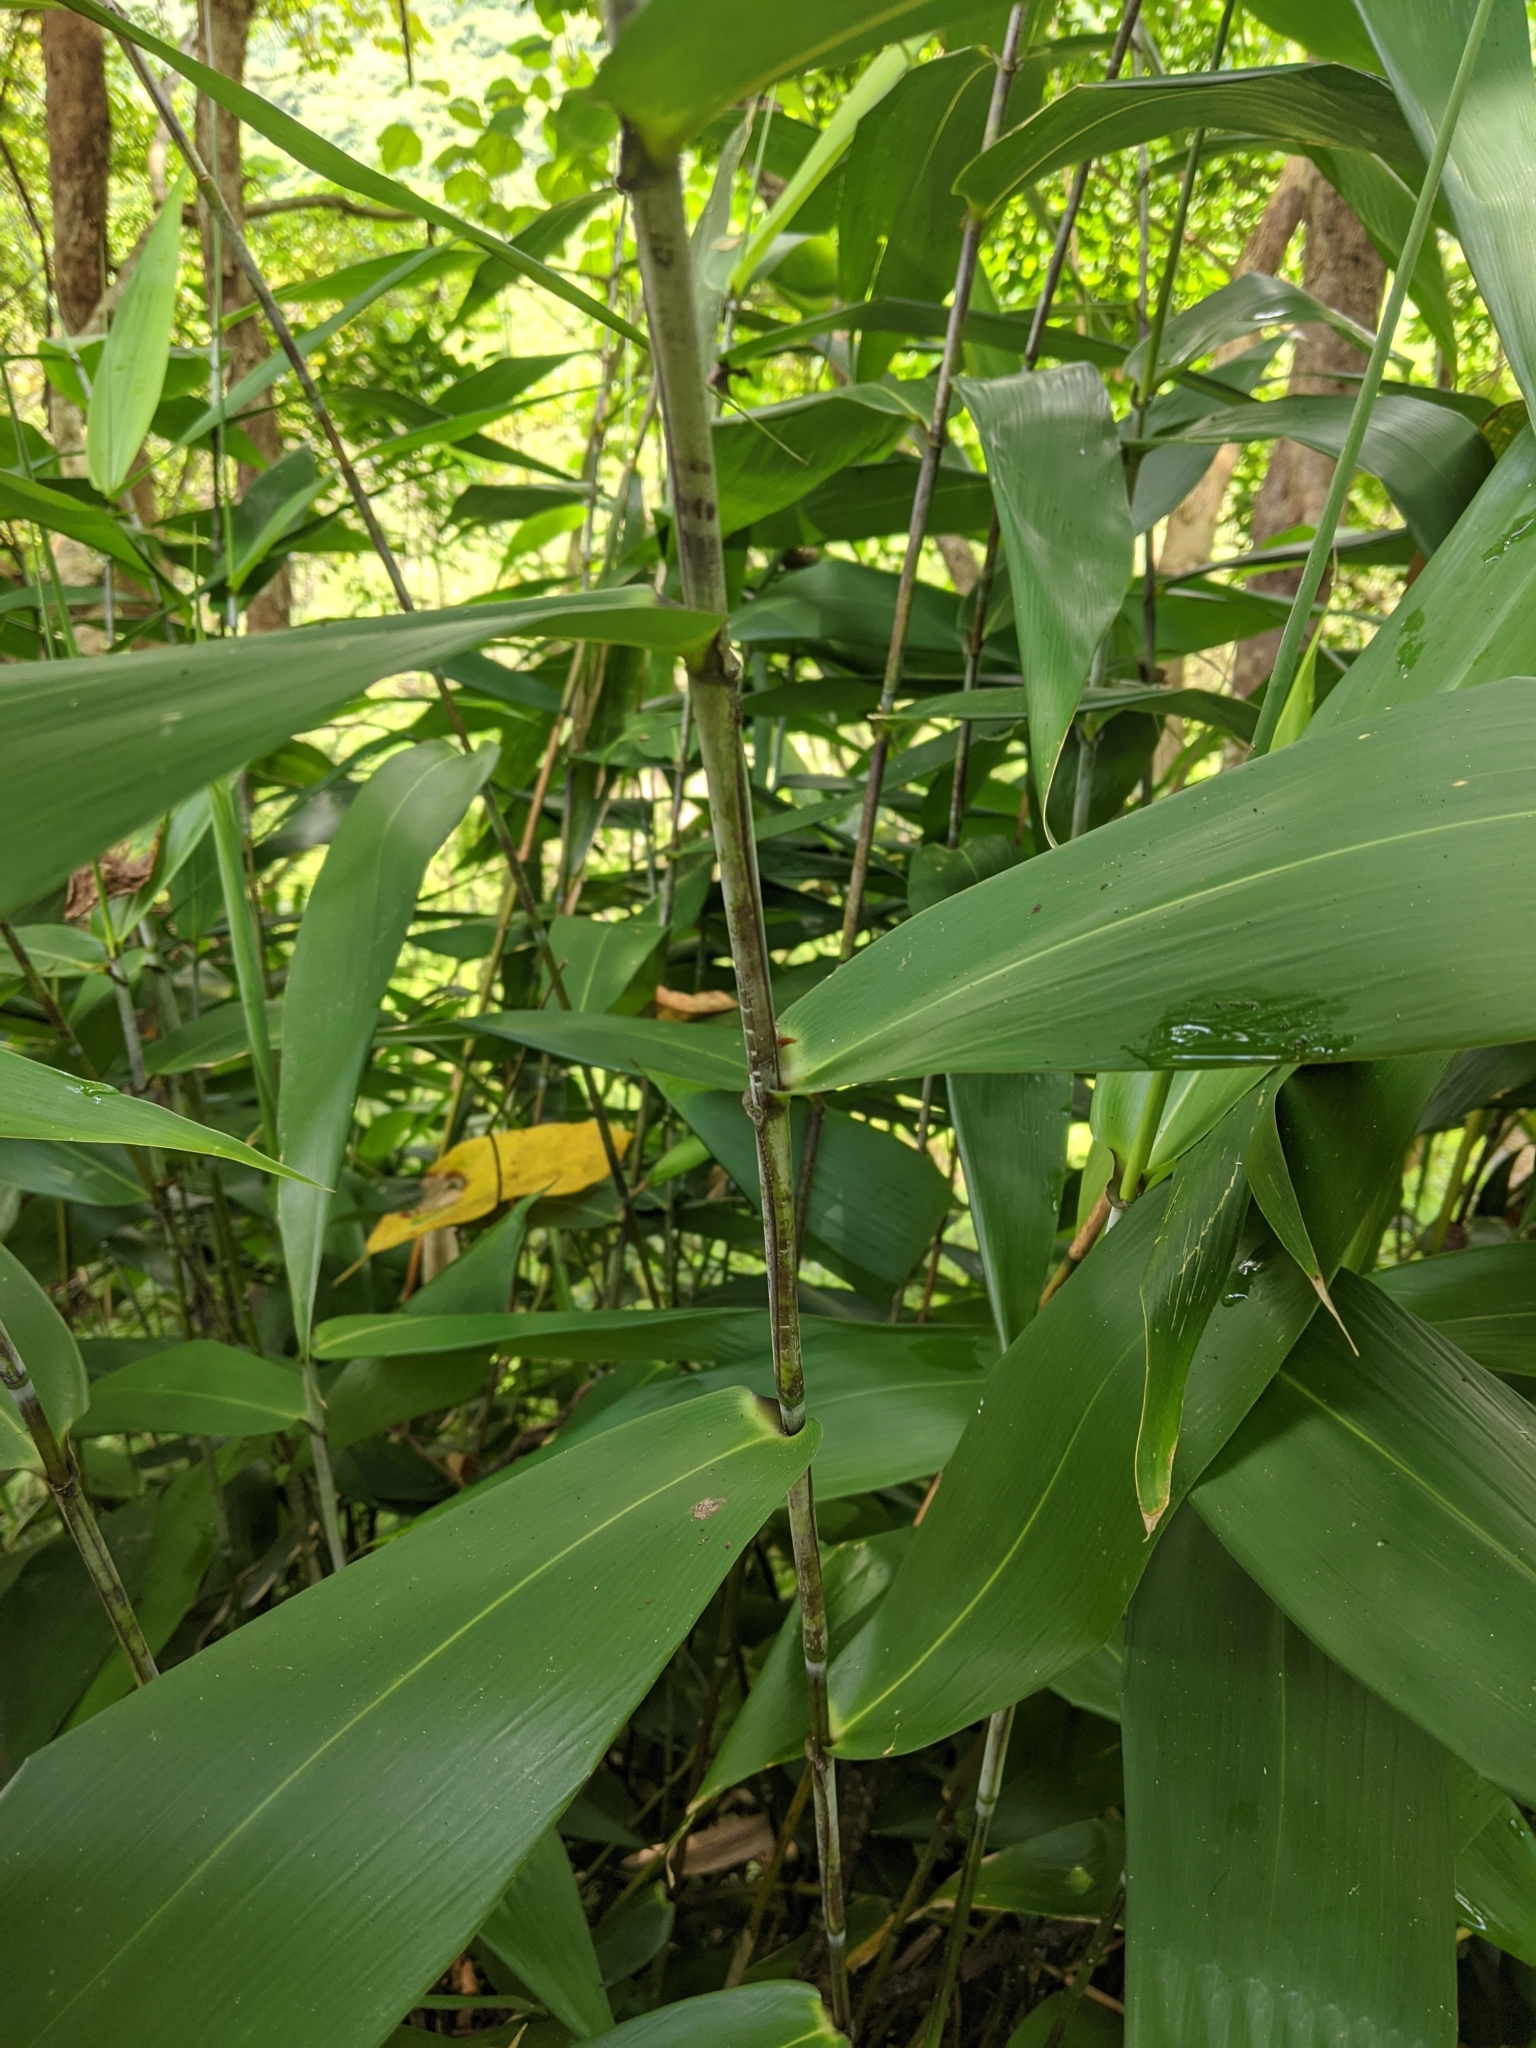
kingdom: Plantae
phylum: Tracheophyta
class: Liliopsida
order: Poales
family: Poaceae
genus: Thysanolaena
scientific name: Thysanolaena latifolia
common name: Tiger grass
